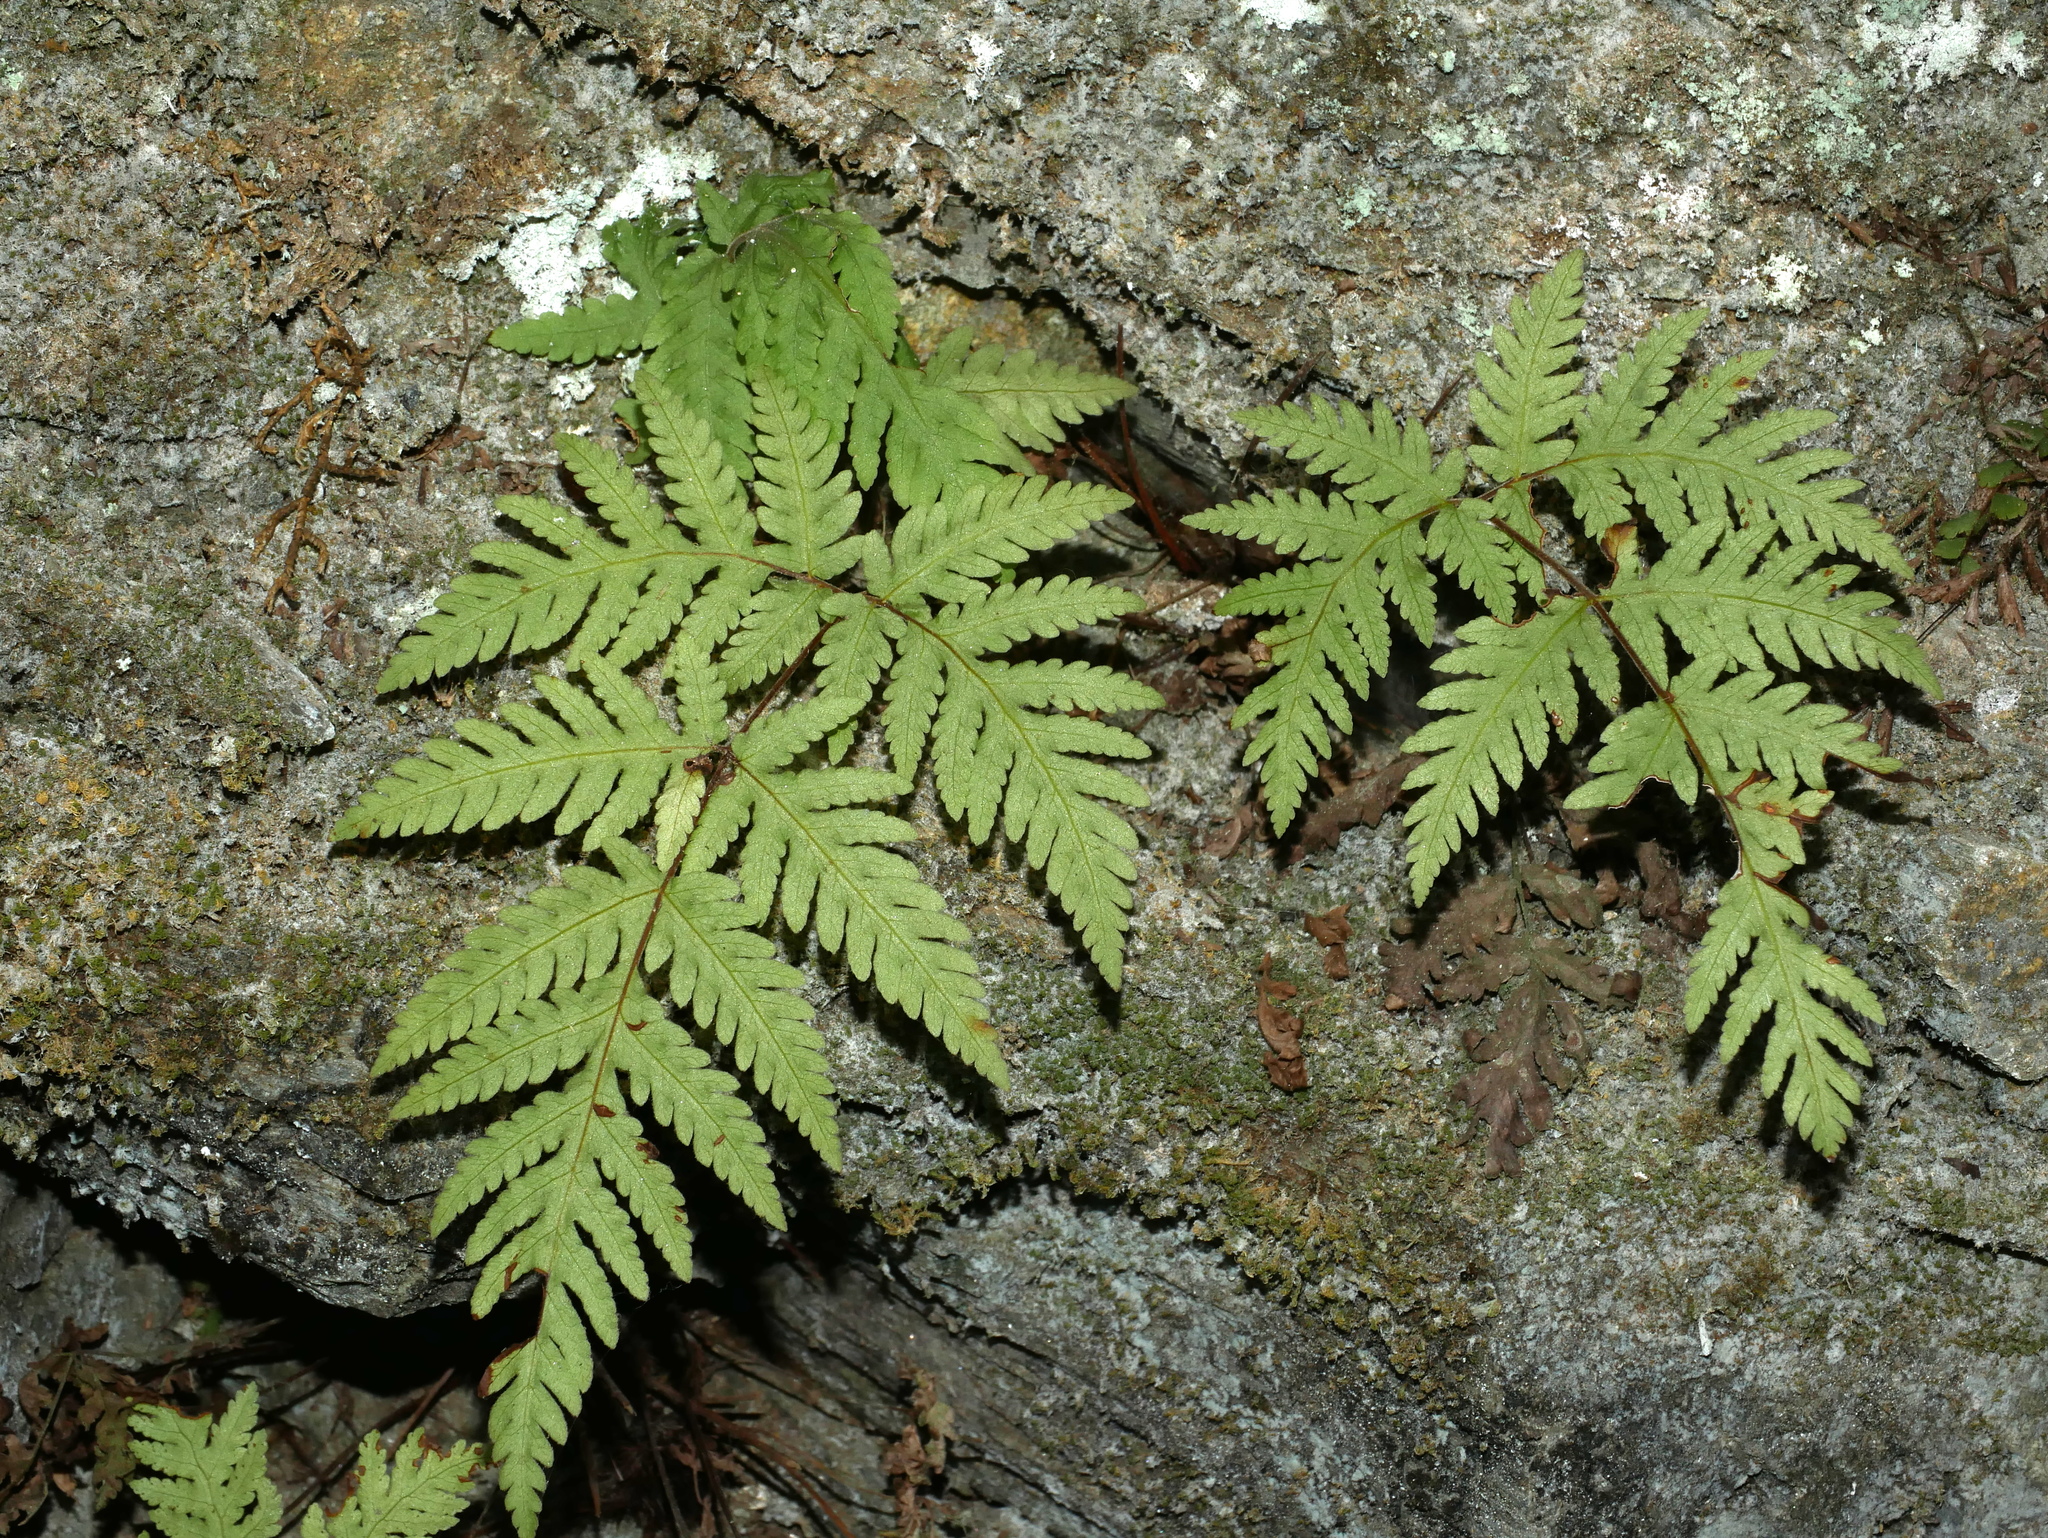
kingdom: Plantae
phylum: Tracheophyta
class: Polypodiopsida
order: Polypodiales
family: Tectariaceae
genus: Tectaria
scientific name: Tectaria membranacea
